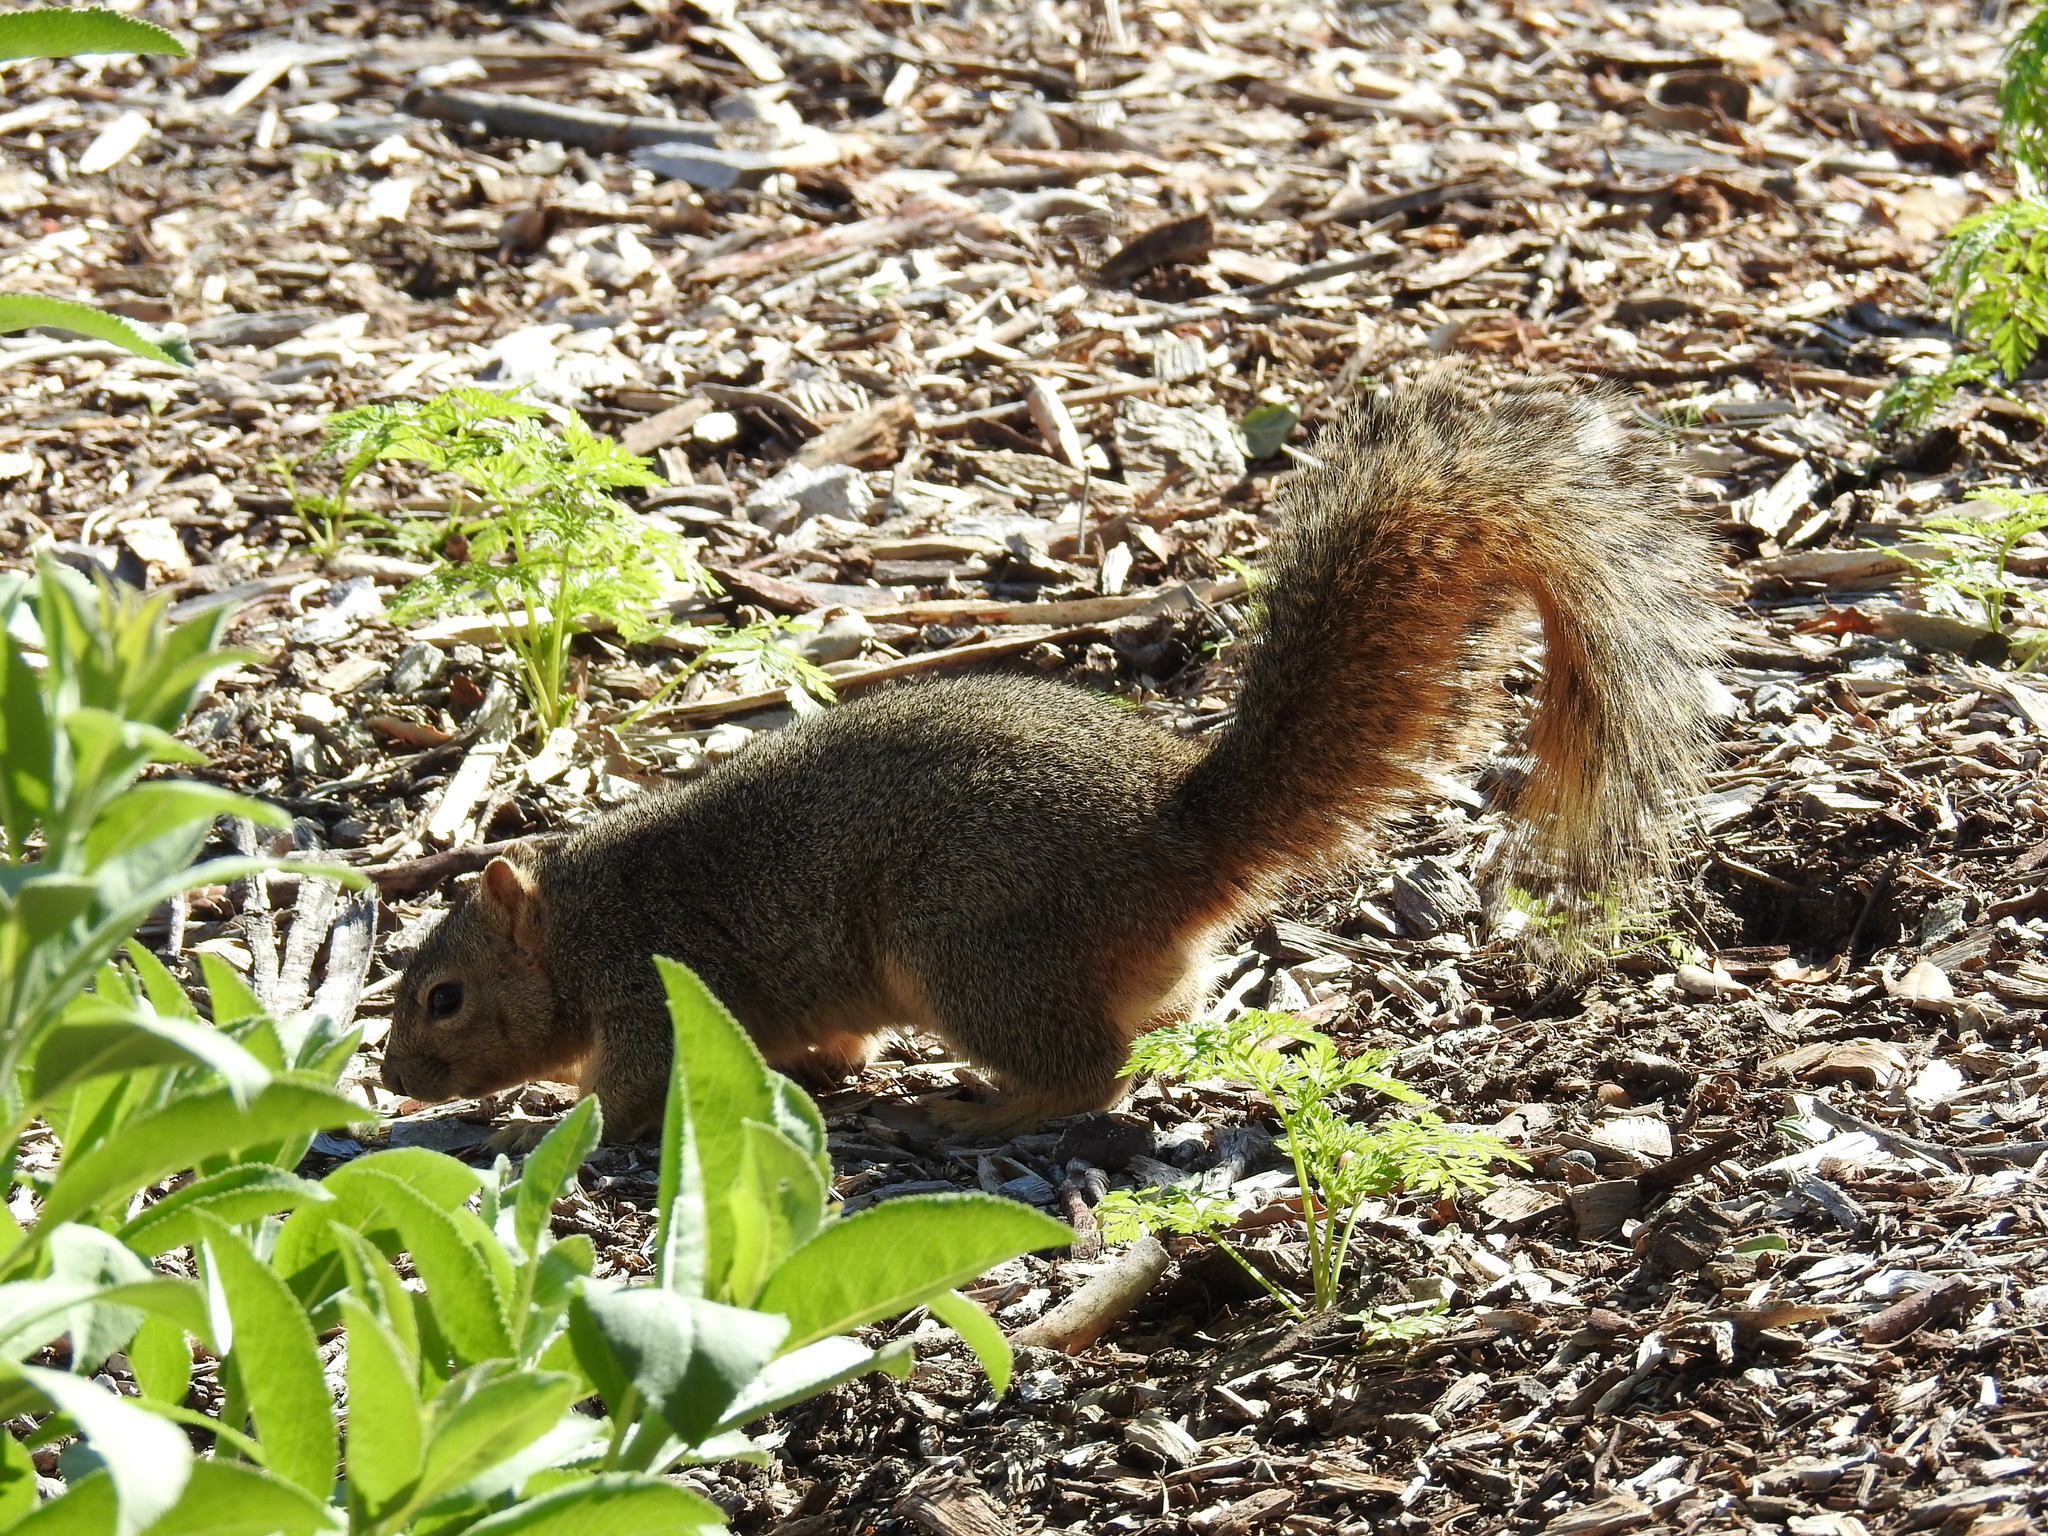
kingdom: Animalia
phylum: Chordata
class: Mammalia
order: Rodentia
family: Sciuridae
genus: Sciurus
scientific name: Sciurus niger
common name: Fox squirrel
